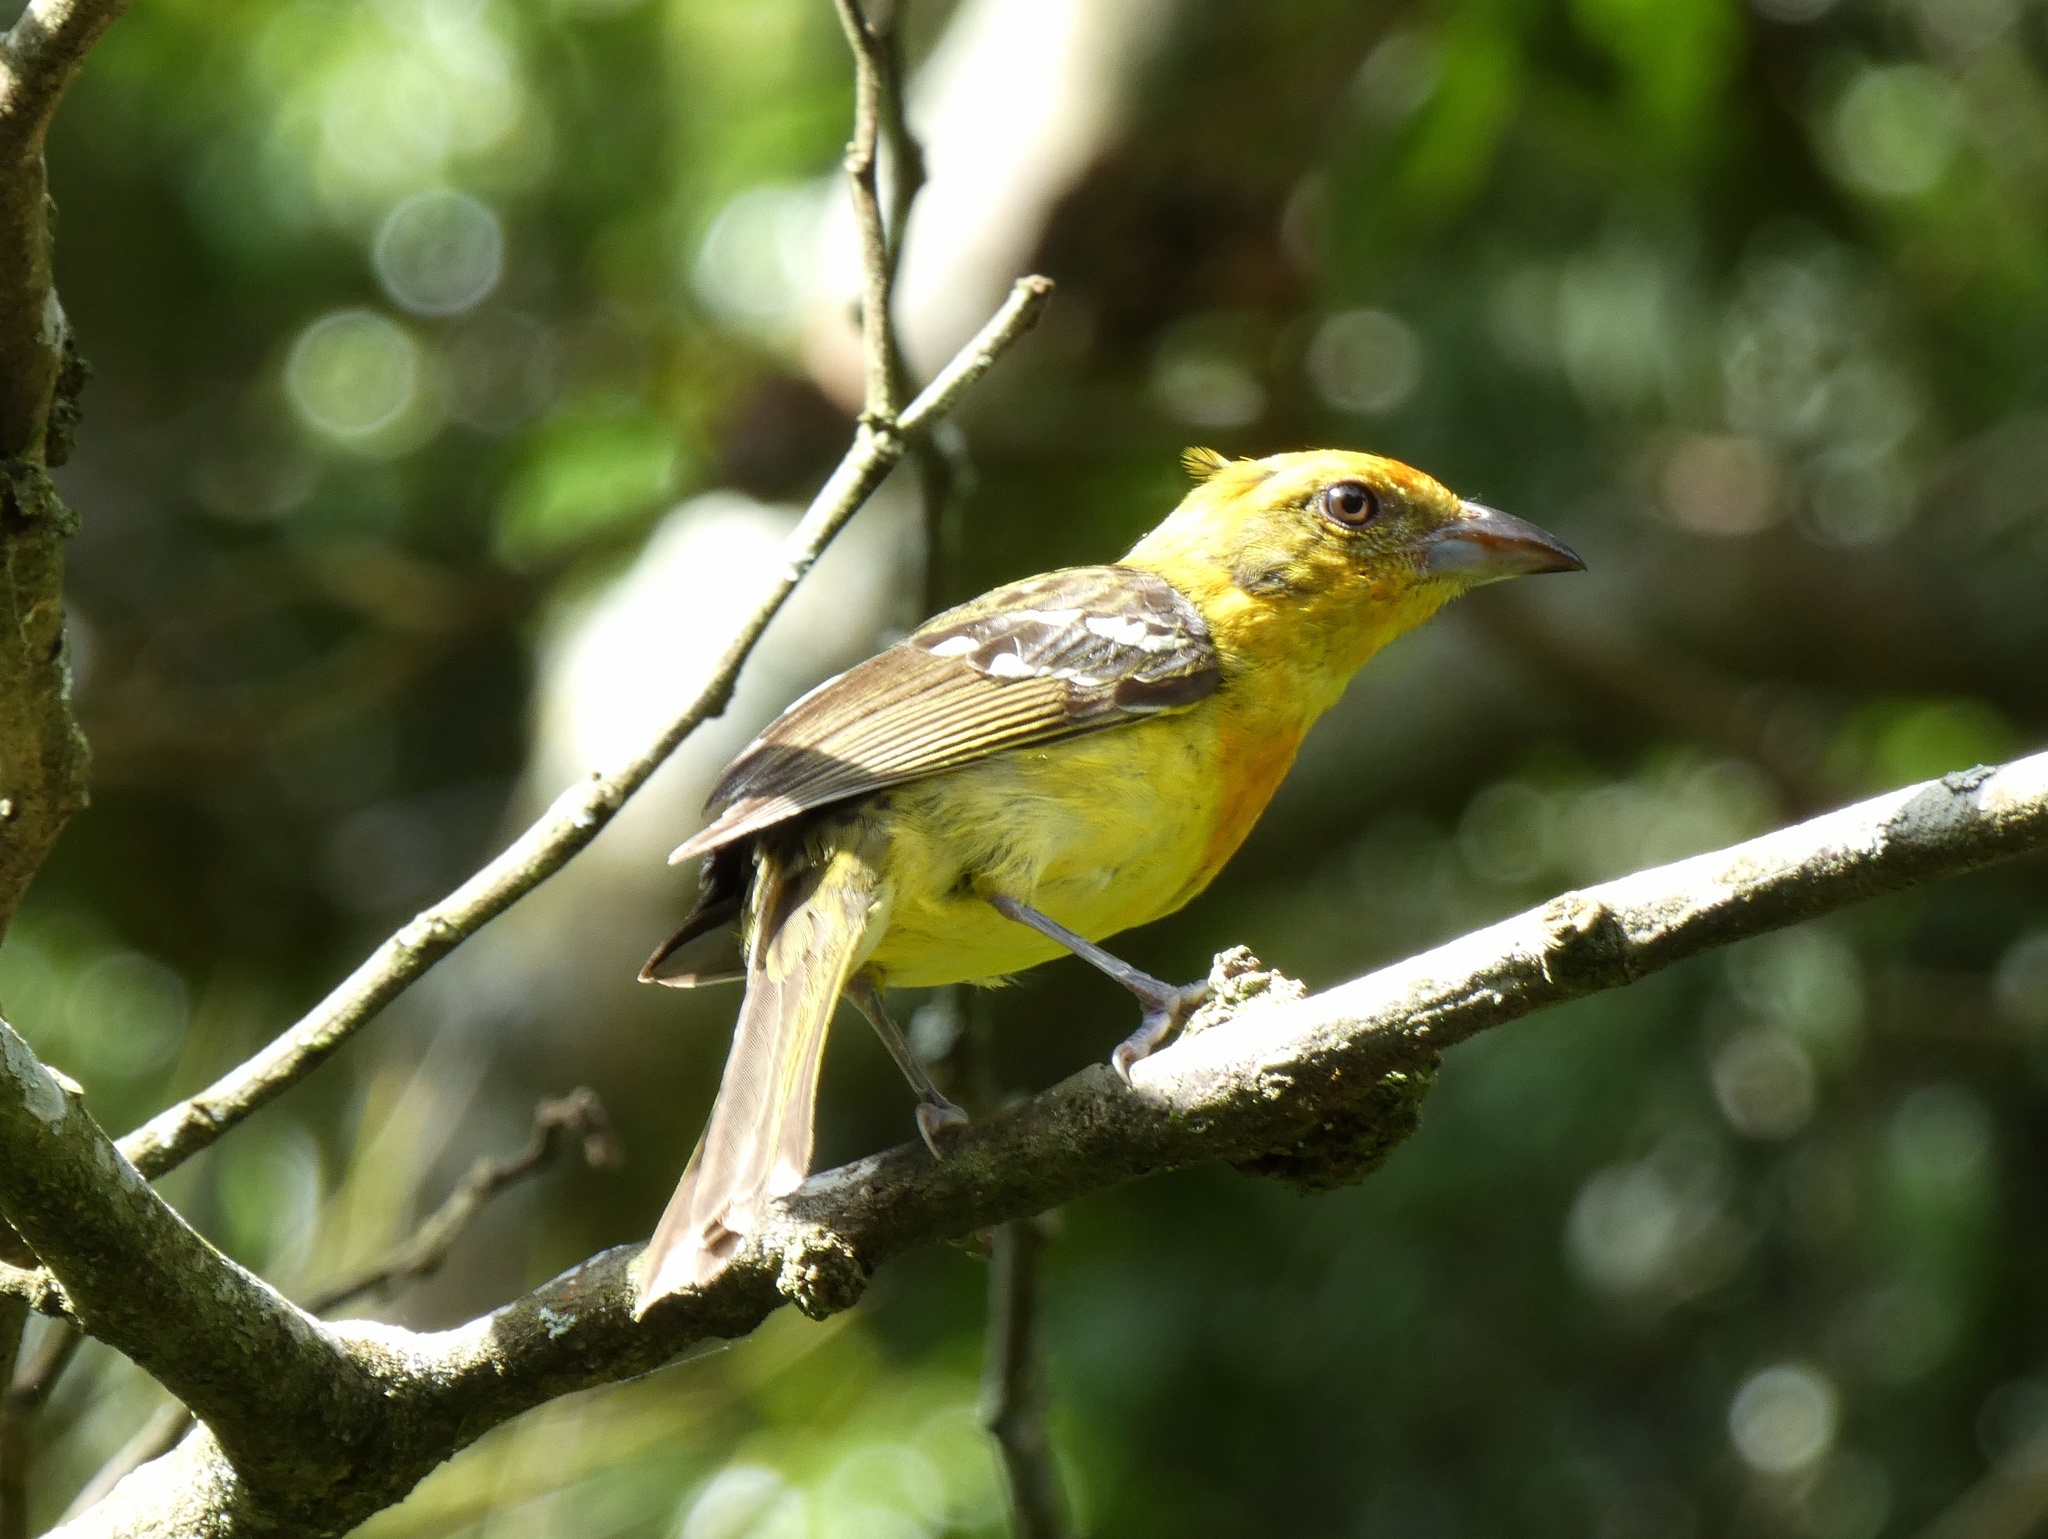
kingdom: Animalia
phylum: Chordata
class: Aves
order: Passeriformes
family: Cardinalidae
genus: Piranga
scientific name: Piranga bidentata
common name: Flame-colored tanager
